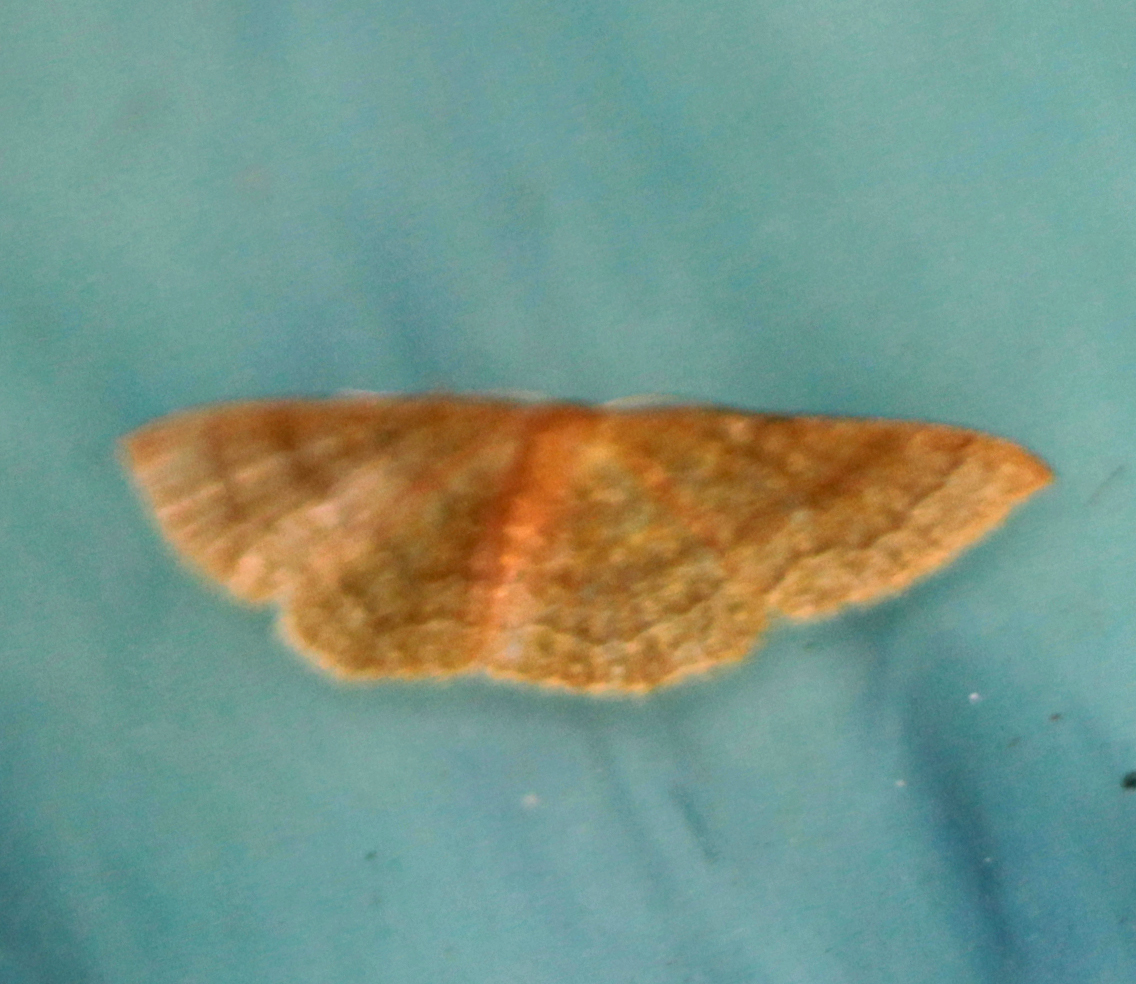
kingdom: Animalia
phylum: Arthropoda
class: Insecta
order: Lepidoptera
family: Geometridae
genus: Pleuroprucha
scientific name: Pleuroprucha insulsaria
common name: Common tan wave
